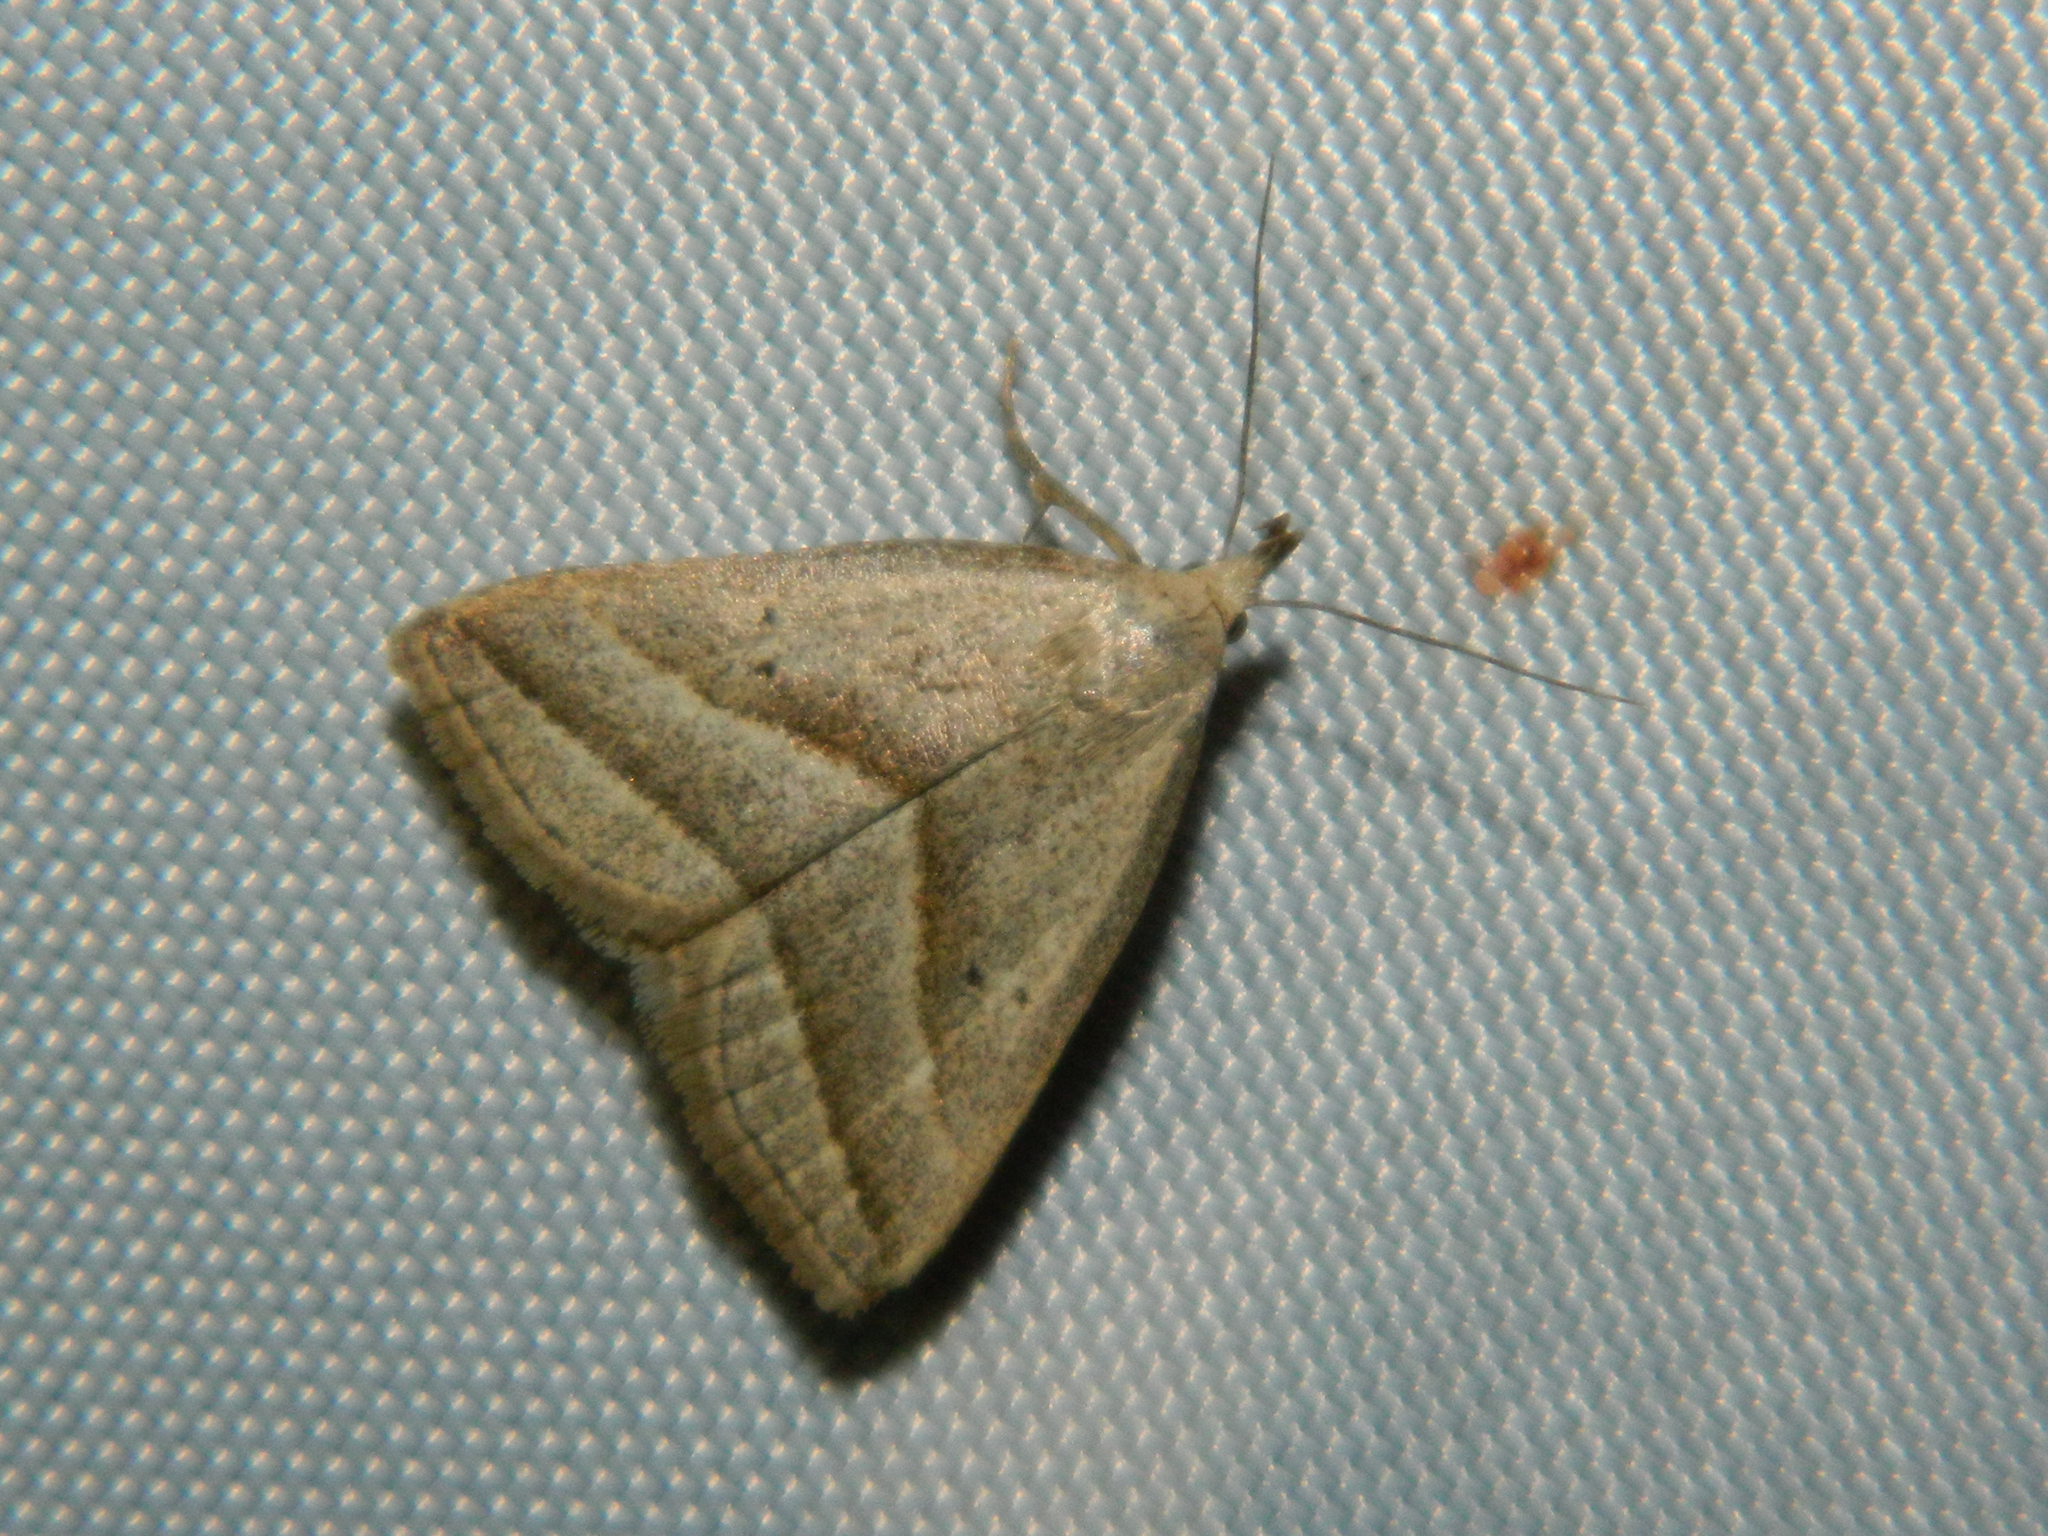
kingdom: Animalia
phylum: Arthropoda
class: Insecta
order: Lepidoptera
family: Erebidae
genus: Macrochilo
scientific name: Macrochilo absorptalis
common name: Slant-lined owlet
